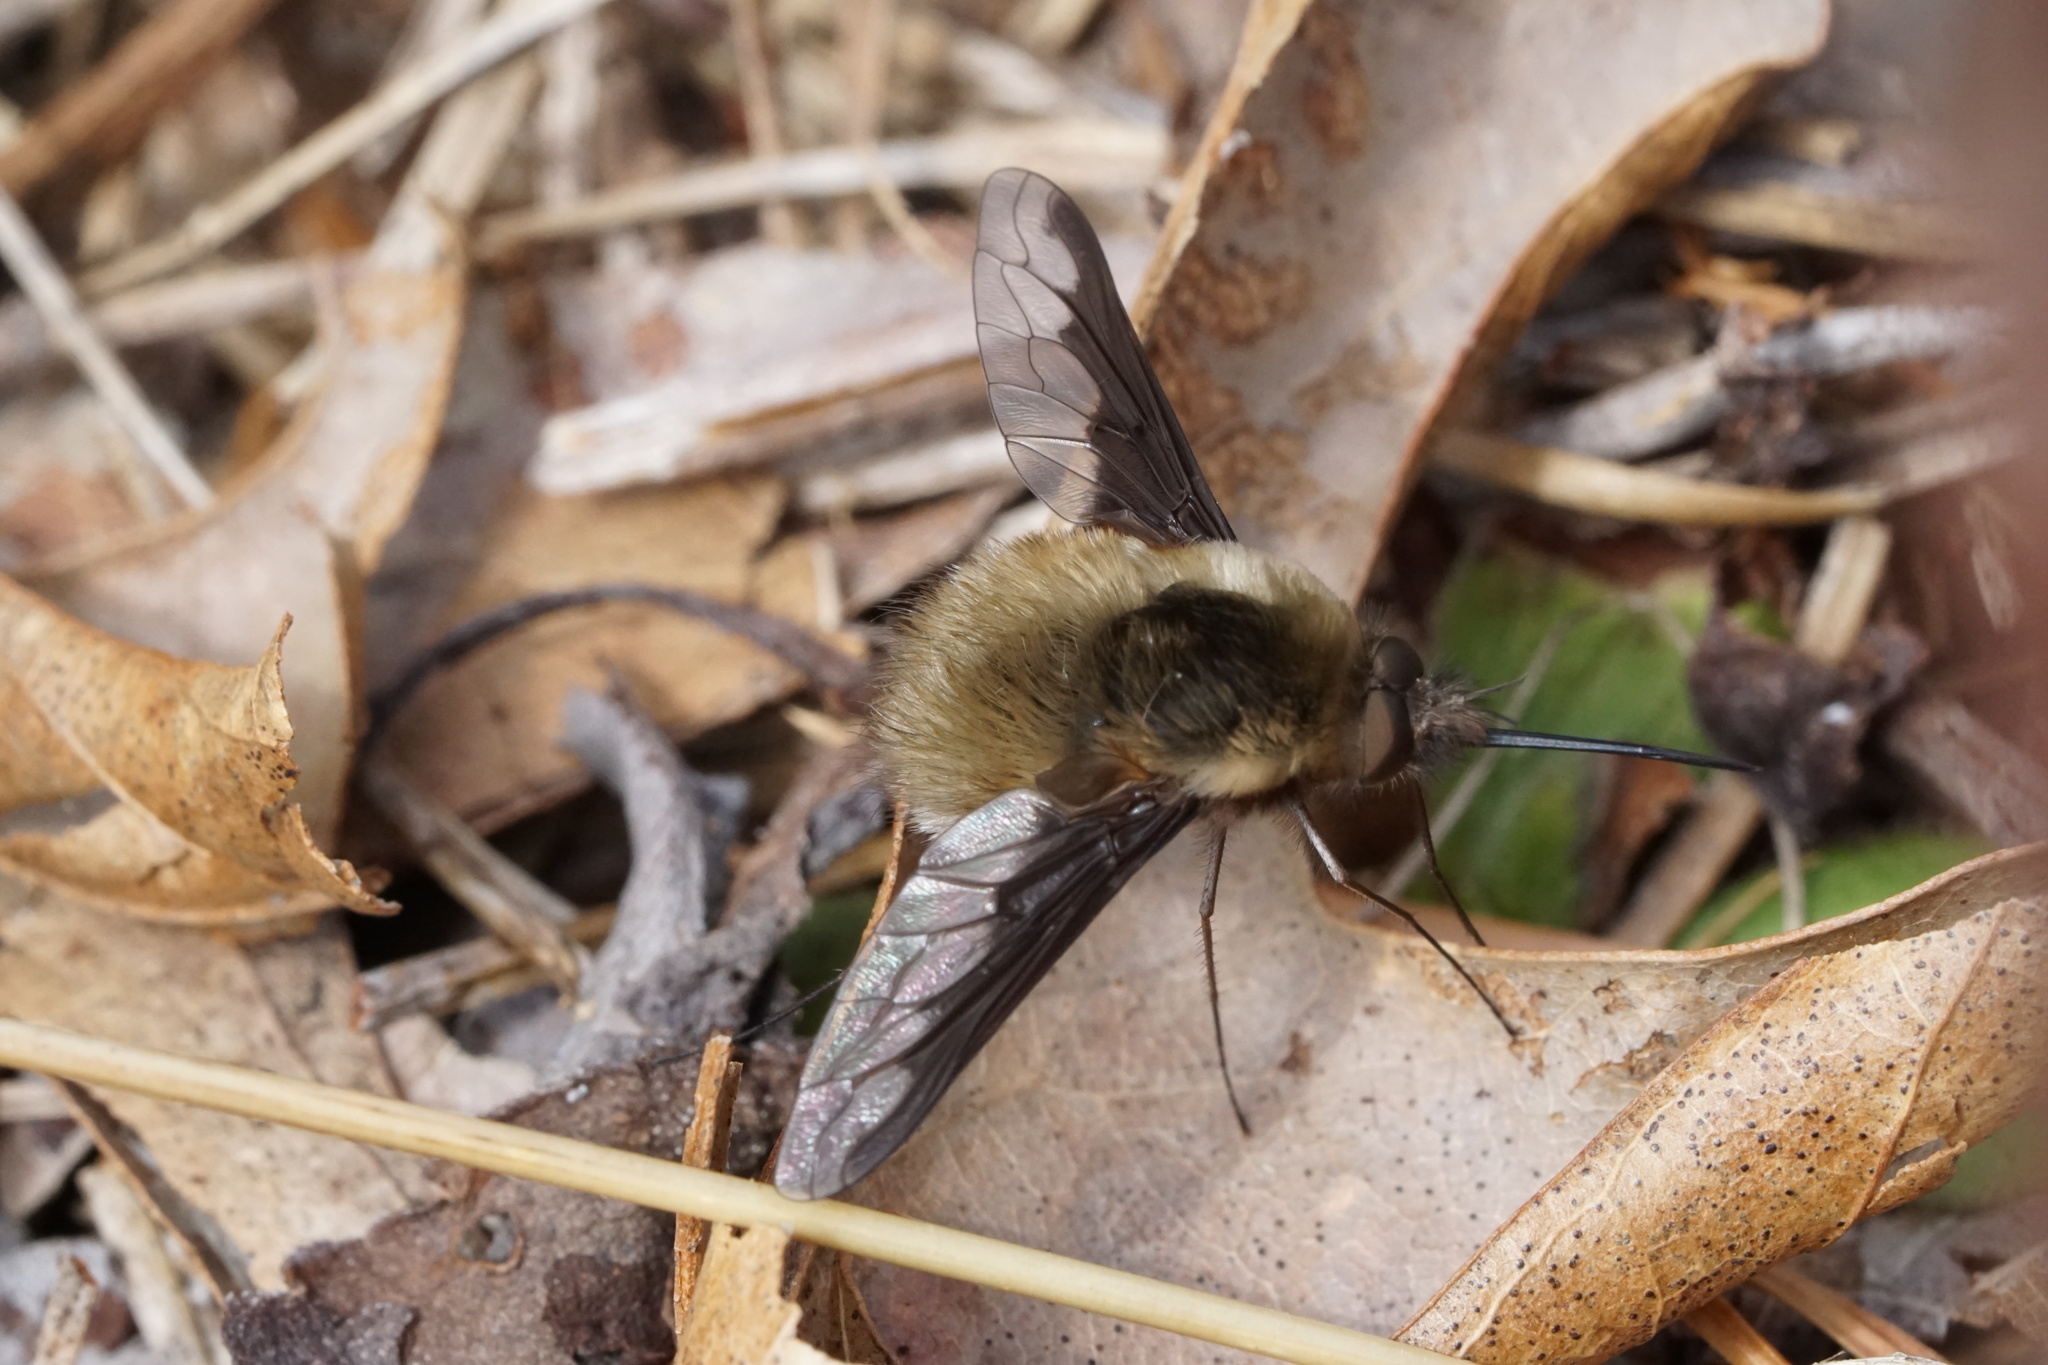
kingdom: Animalia
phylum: Arthropoda
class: Insecta
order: Diptera
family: Bombyliidae
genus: Bombylius
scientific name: Bombylius major
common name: Bee fly
